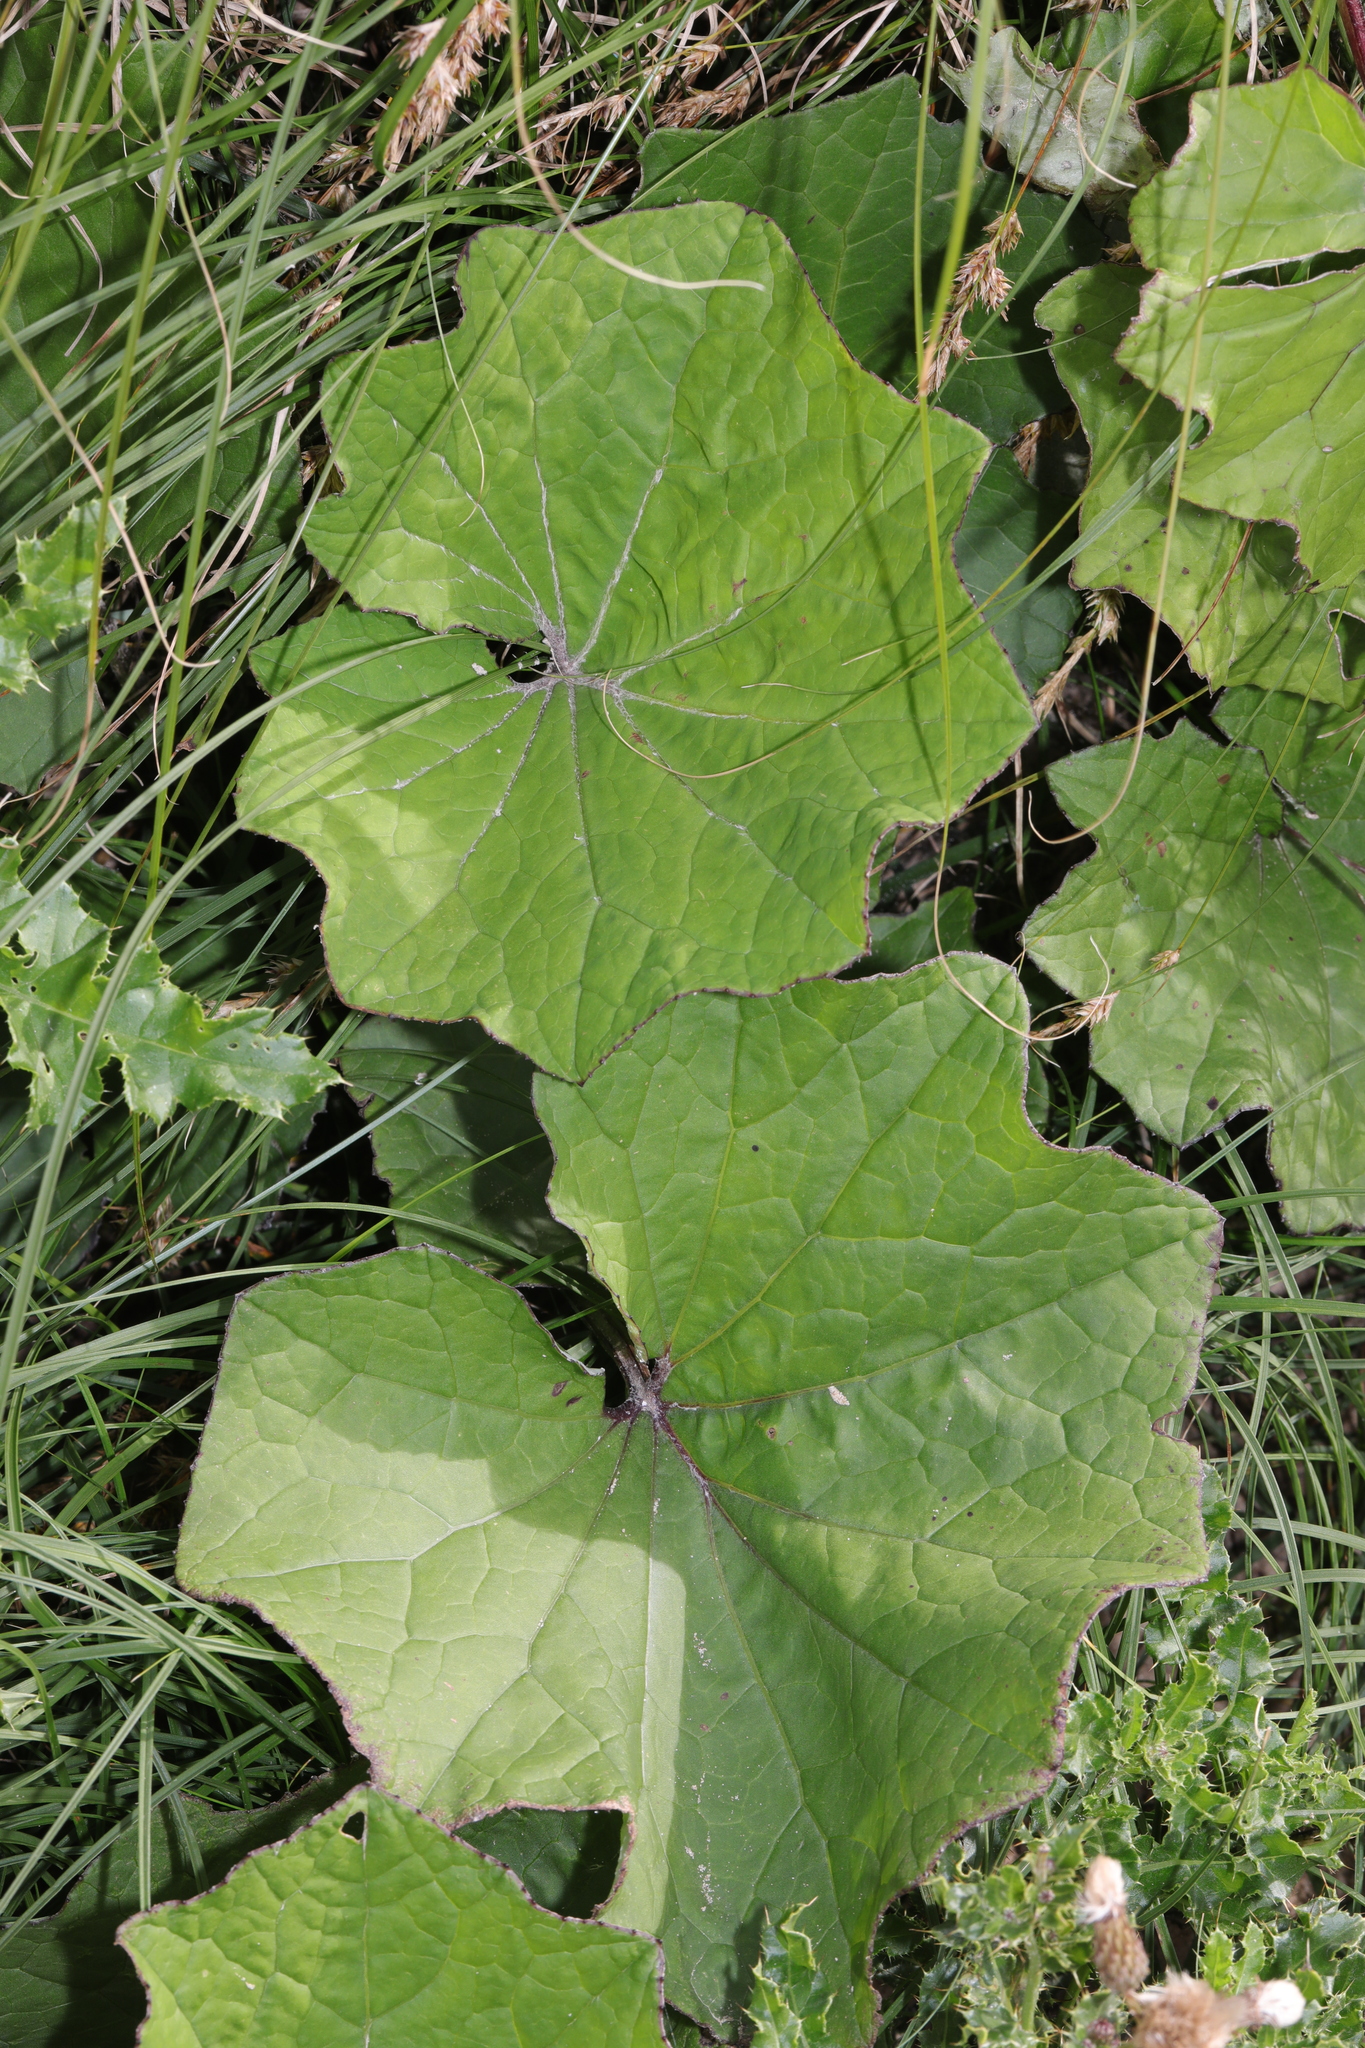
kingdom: Plantae
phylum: Tracheophyta
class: Magnoliopsida
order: Asterales
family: Asteraceae
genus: Tussilago
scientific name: Tussilago farfara
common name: Coltsfoot
